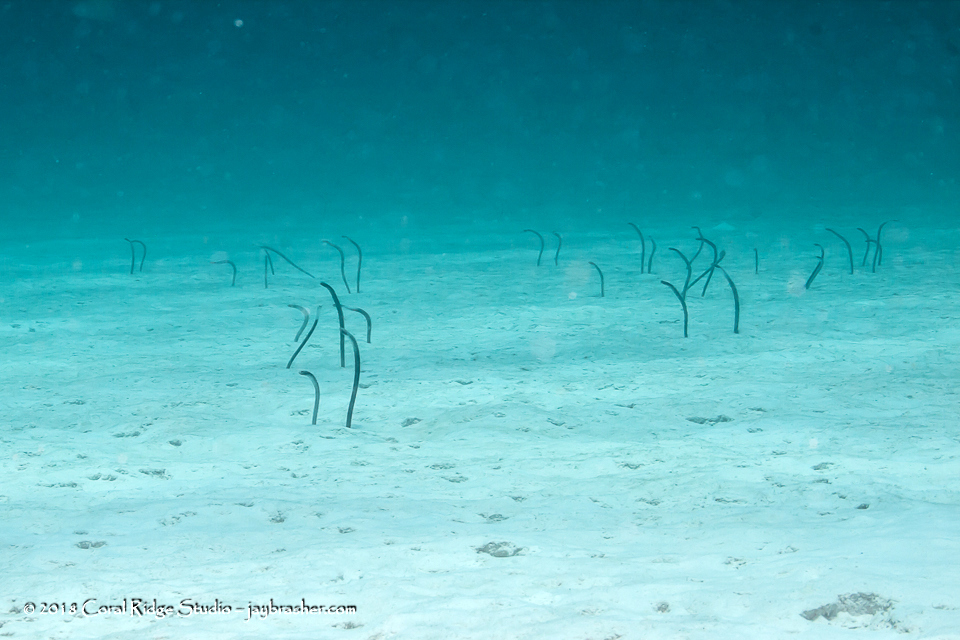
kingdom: Animalia
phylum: Chordata
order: Anguilliformes
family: Congridae
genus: Heteroconger
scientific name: Heteroconger longissimus
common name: Garden eel
